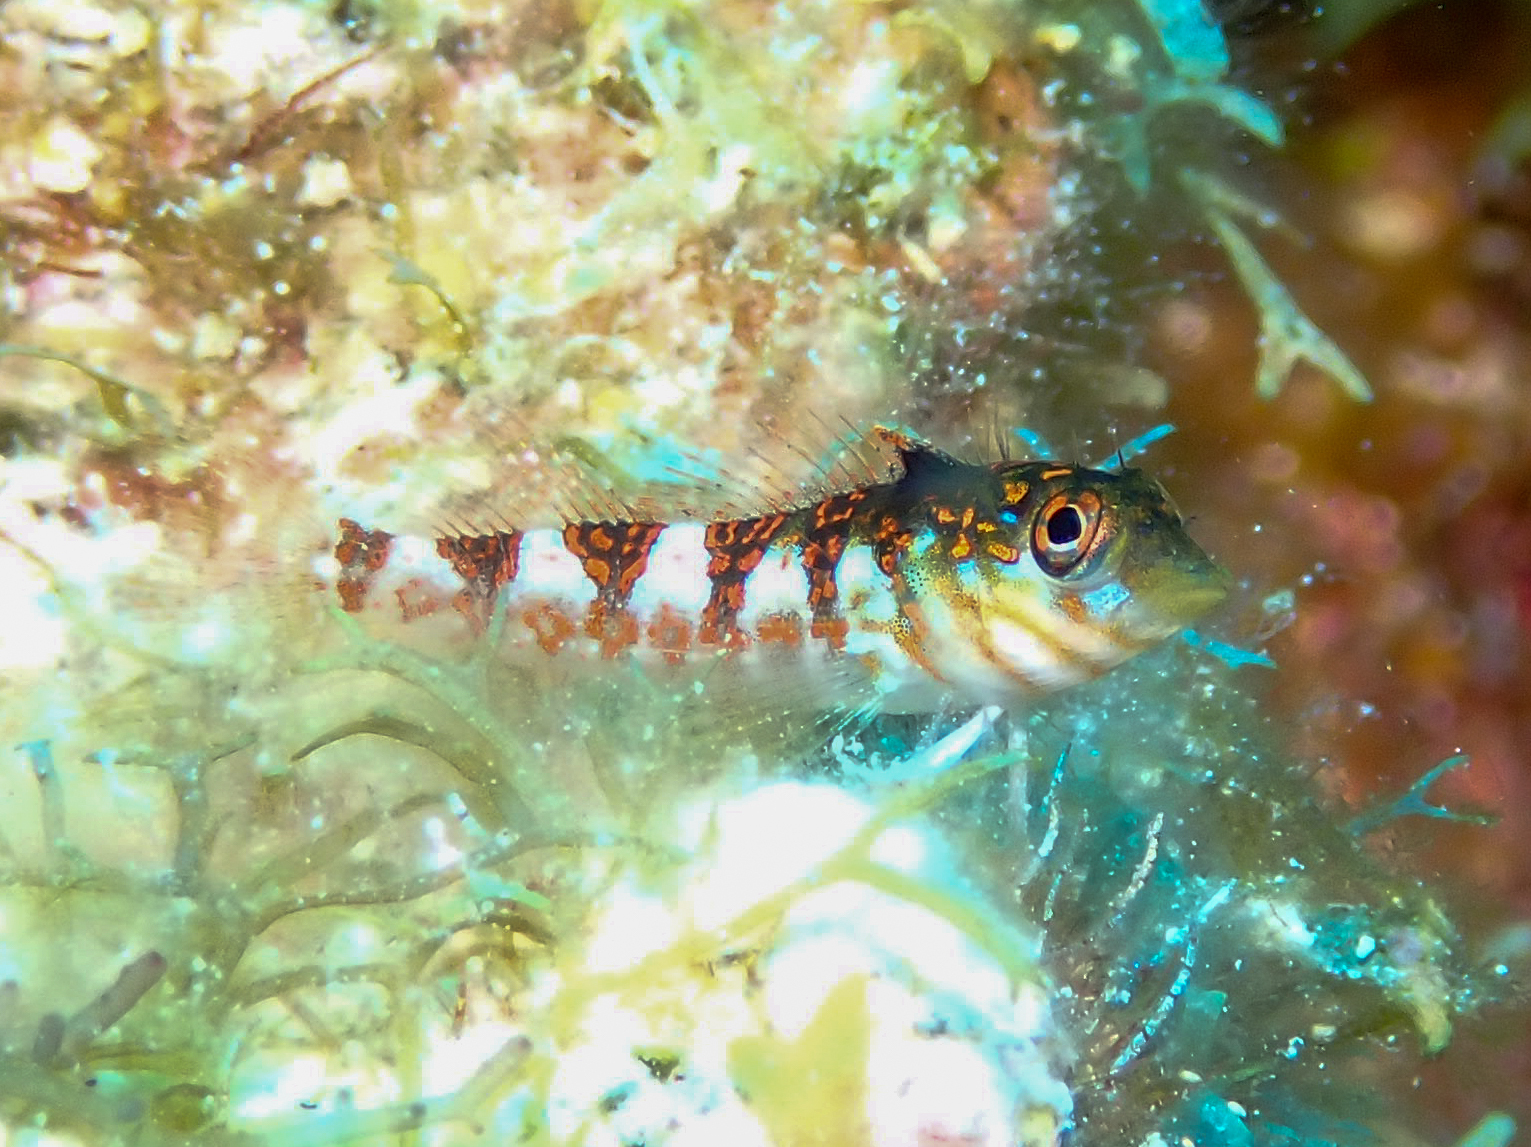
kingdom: Animalia
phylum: Chordata
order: Perciformes
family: Labrisomidae
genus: Malacoctenus
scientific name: Malacoctenus triangulatus
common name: Saddled blenny
